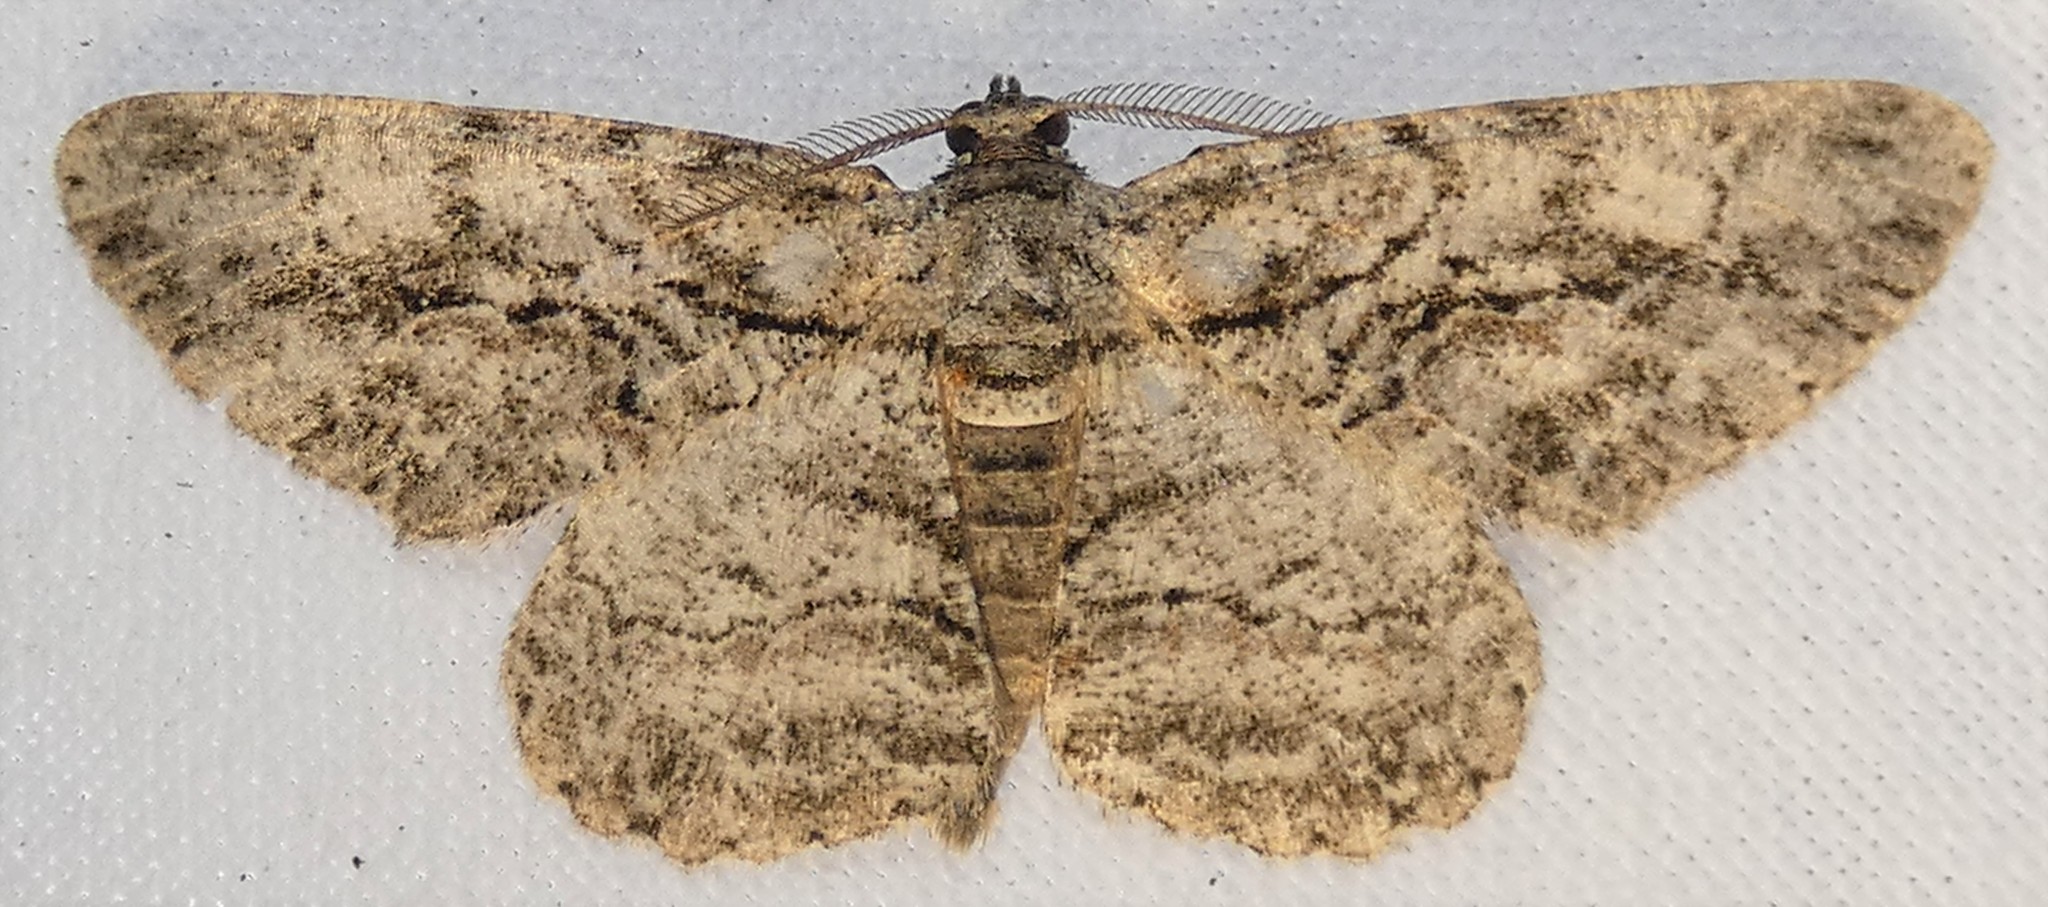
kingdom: Animalia
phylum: Arthropoda
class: Insecta
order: Lepidoptera
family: Geometridae
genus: Anavitrinella
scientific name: Anavitrinella pampinaria
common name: Common gray
